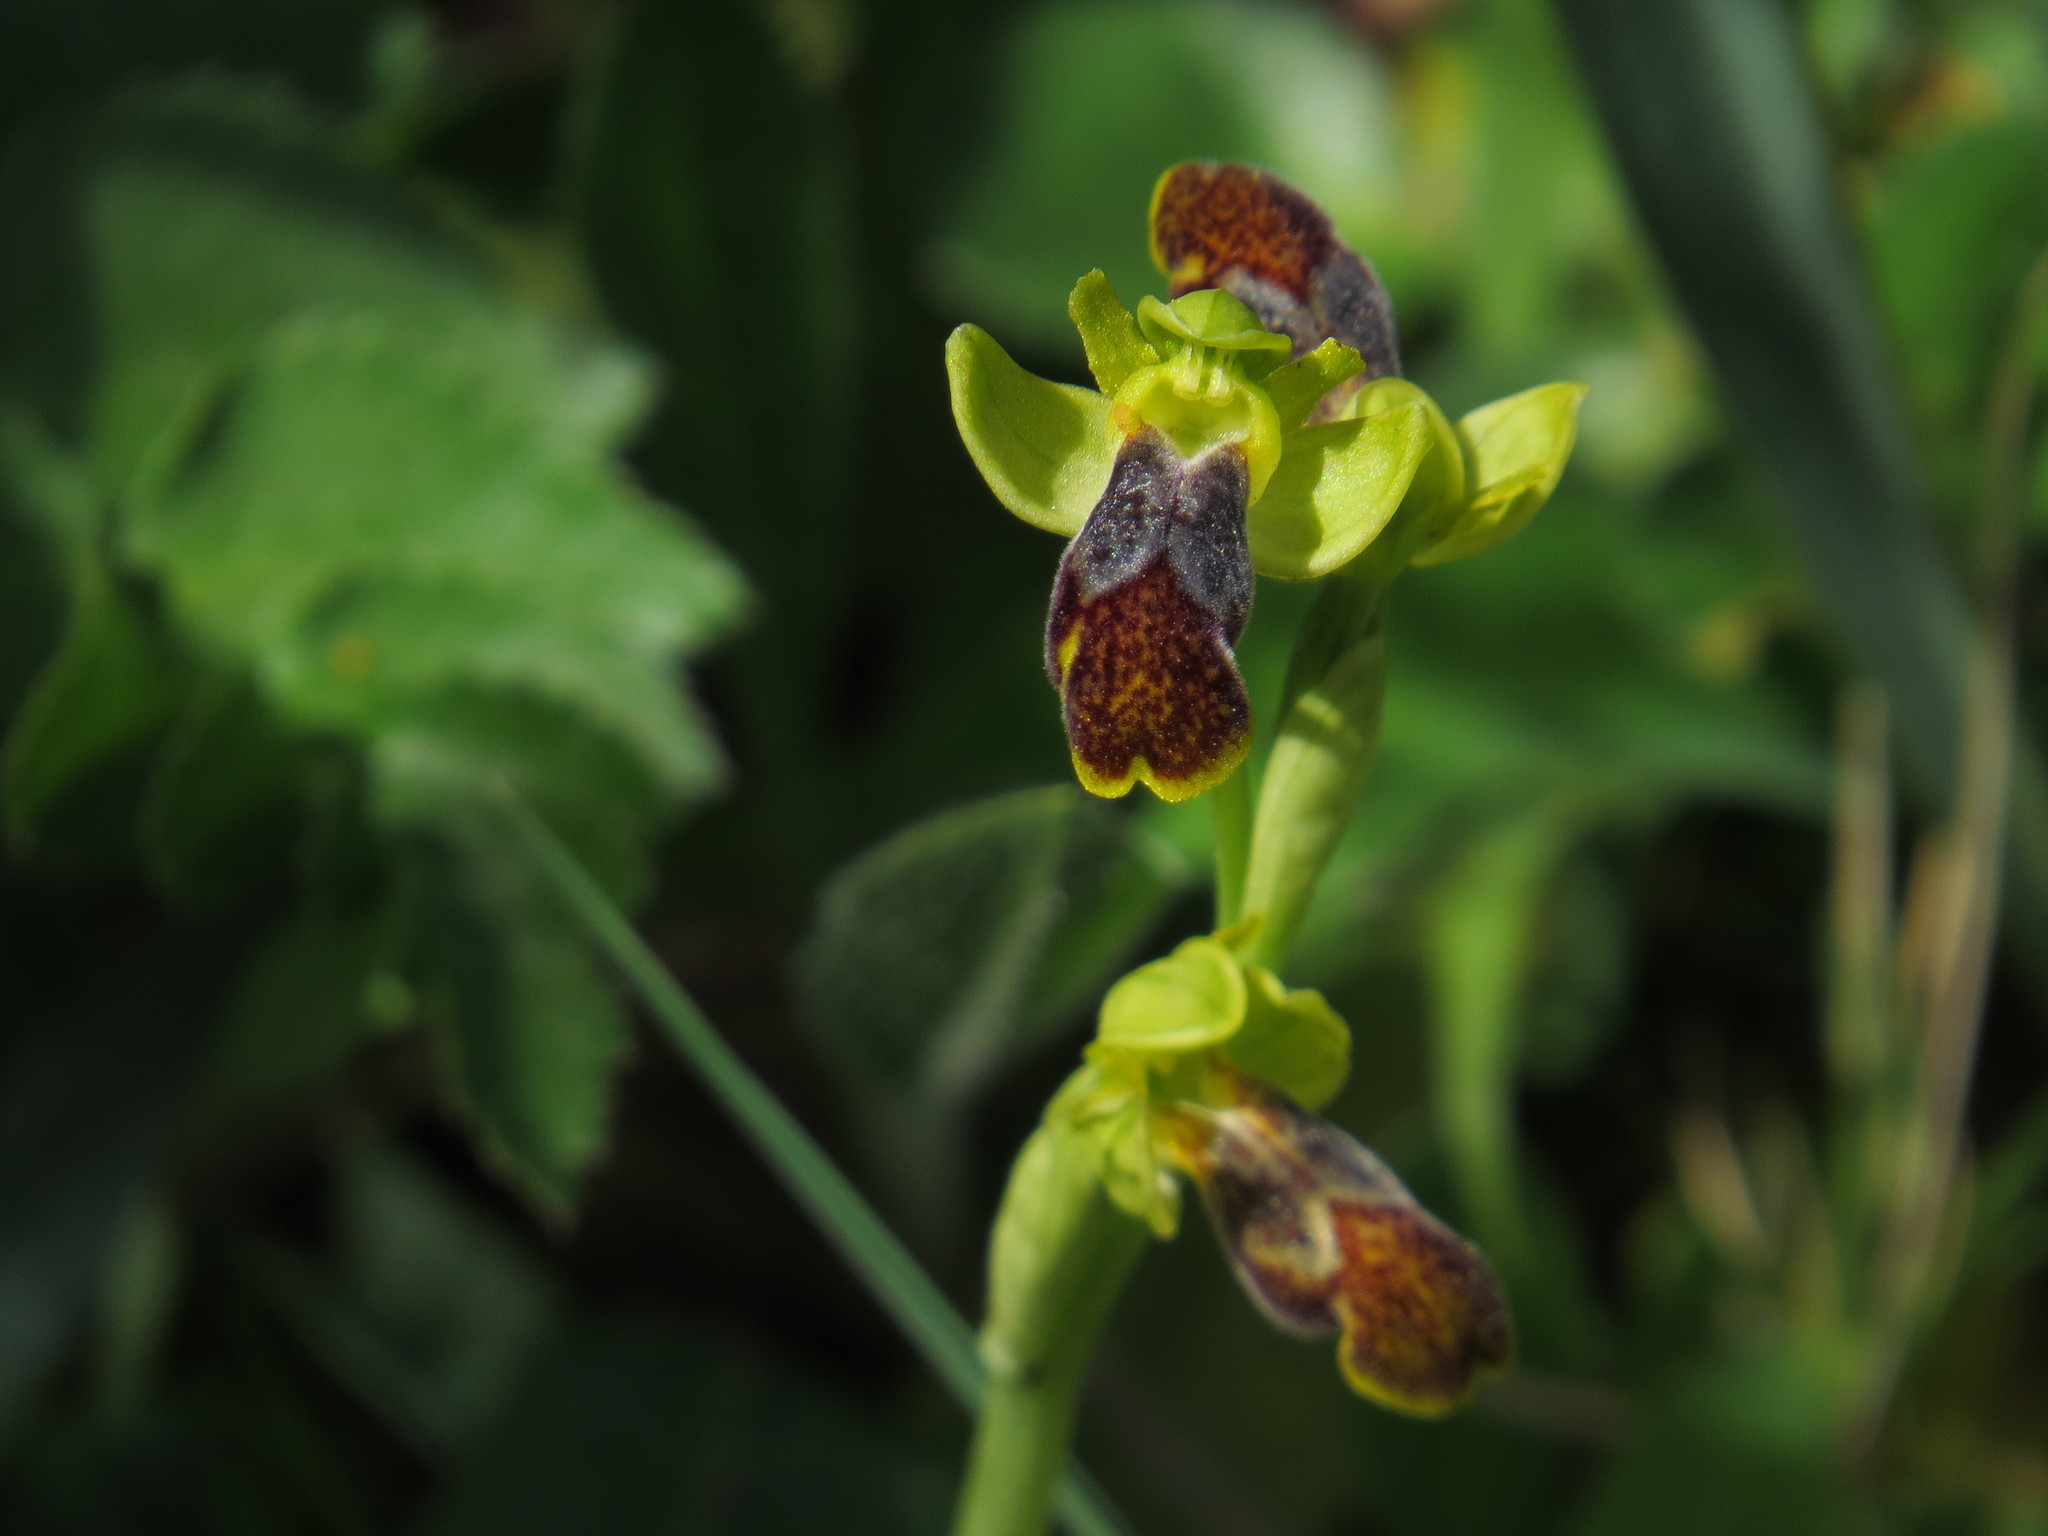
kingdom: Plantae
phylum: Tracheophyta
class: Liliopsida
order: Asparagales
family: Orchidaceae
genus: Ophrys
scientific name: Ophrys fusca
